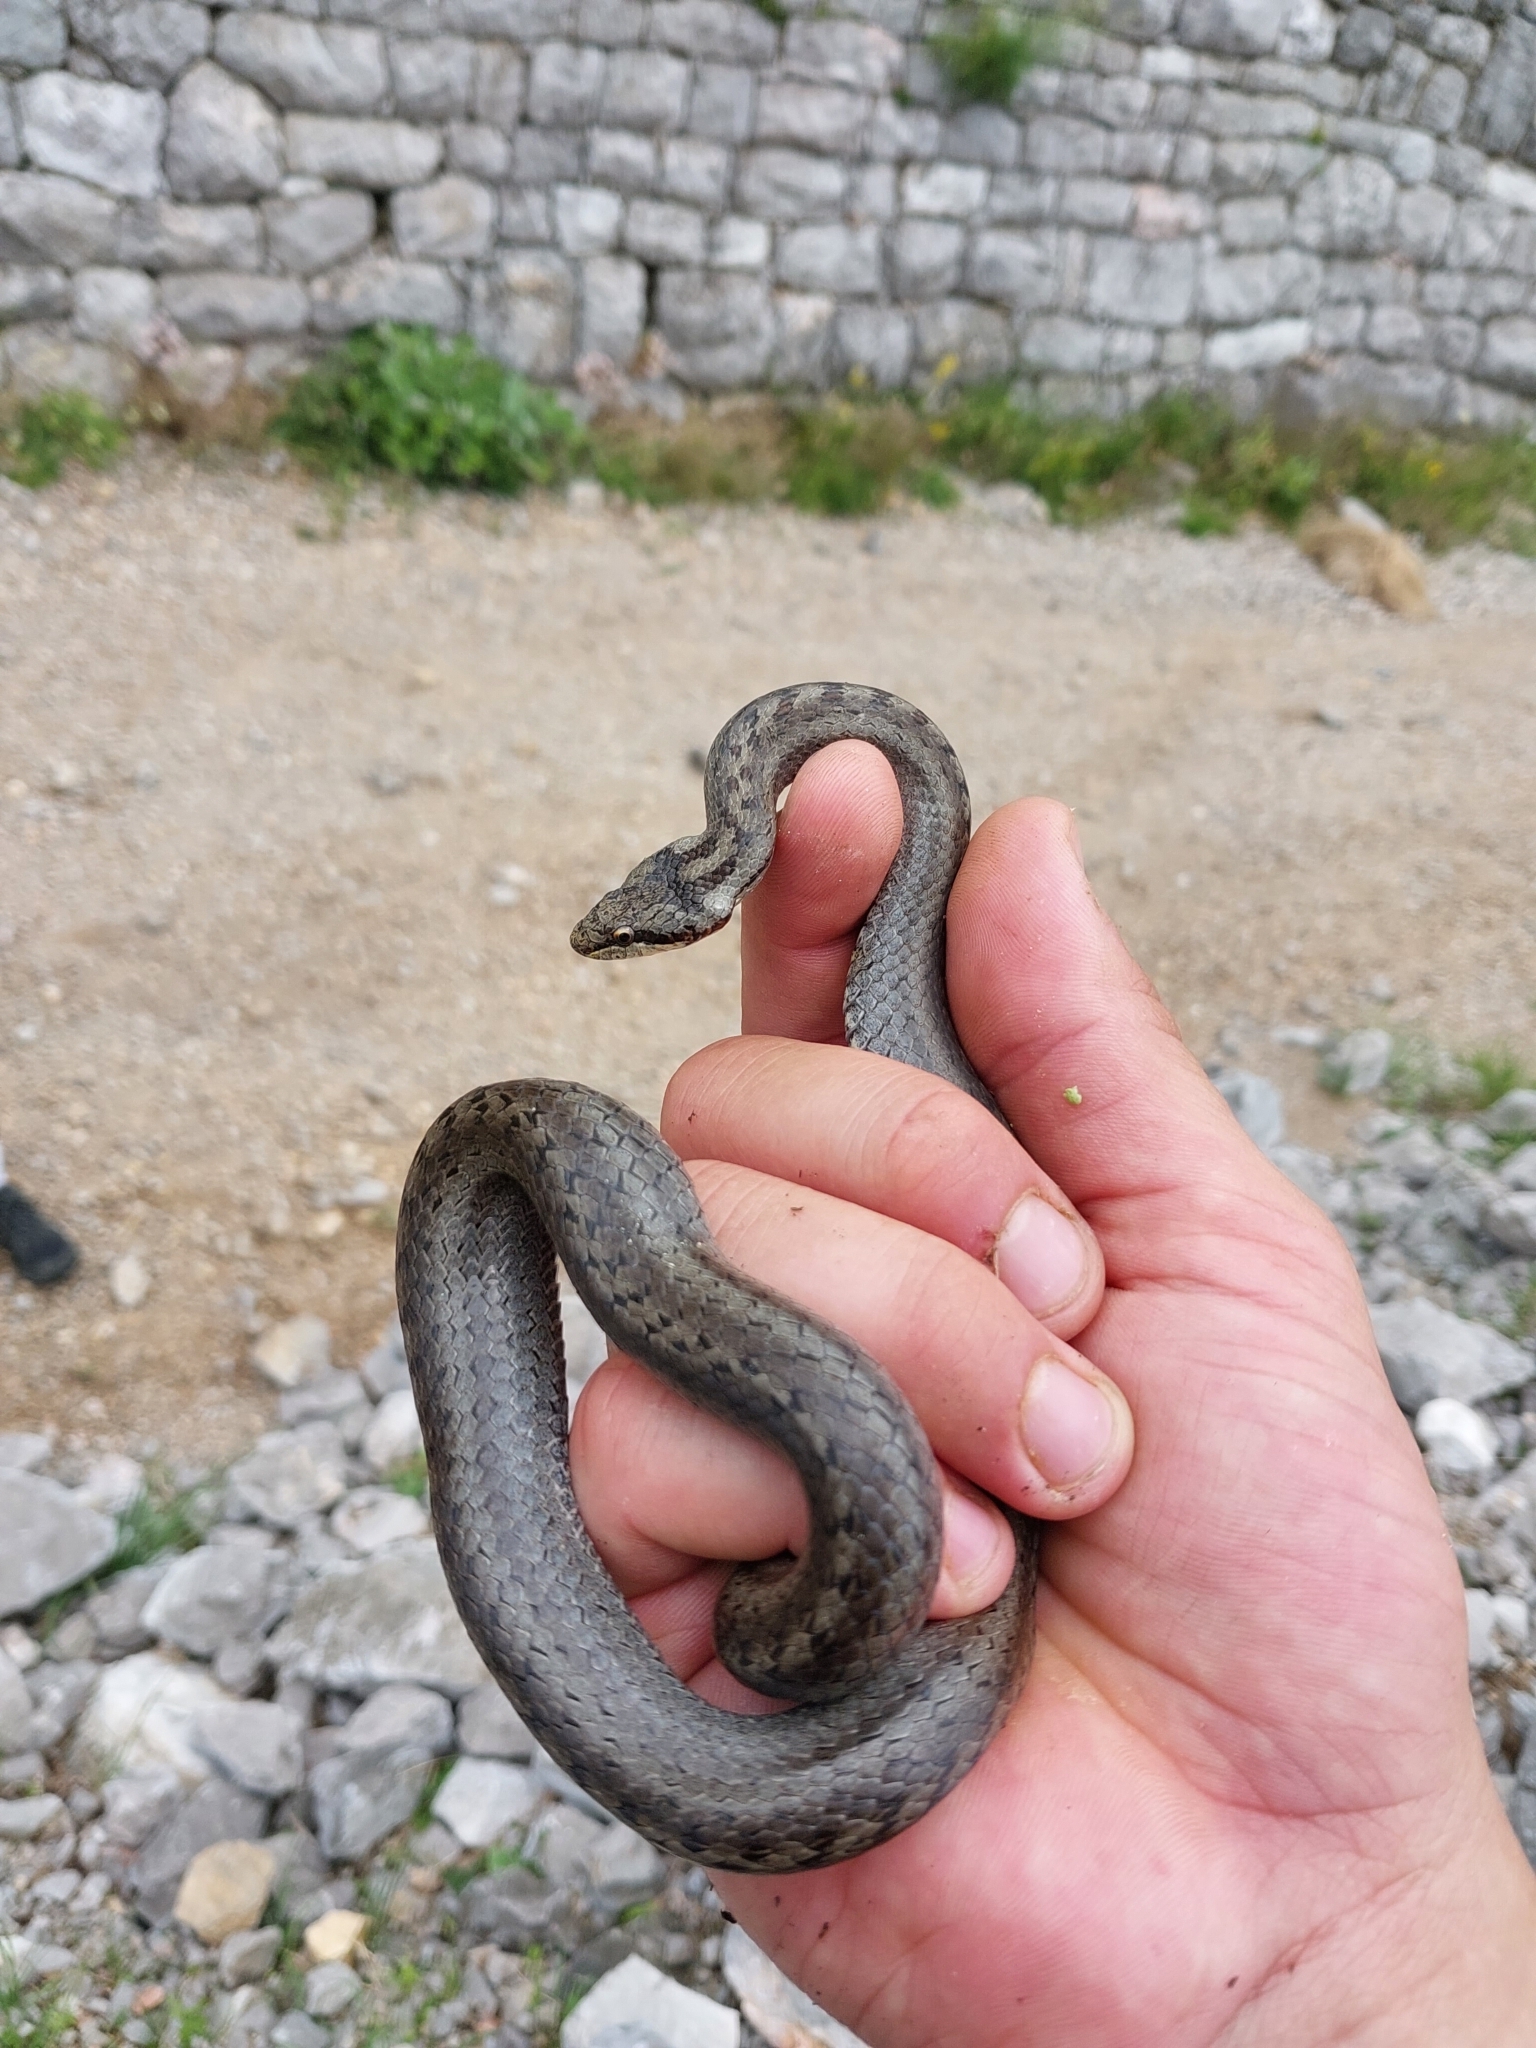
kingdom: Animalia
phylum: Chordata
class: Squamata
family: Colubridae
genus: Coronella
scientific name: Coronella austriaca
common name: Smooth snake
